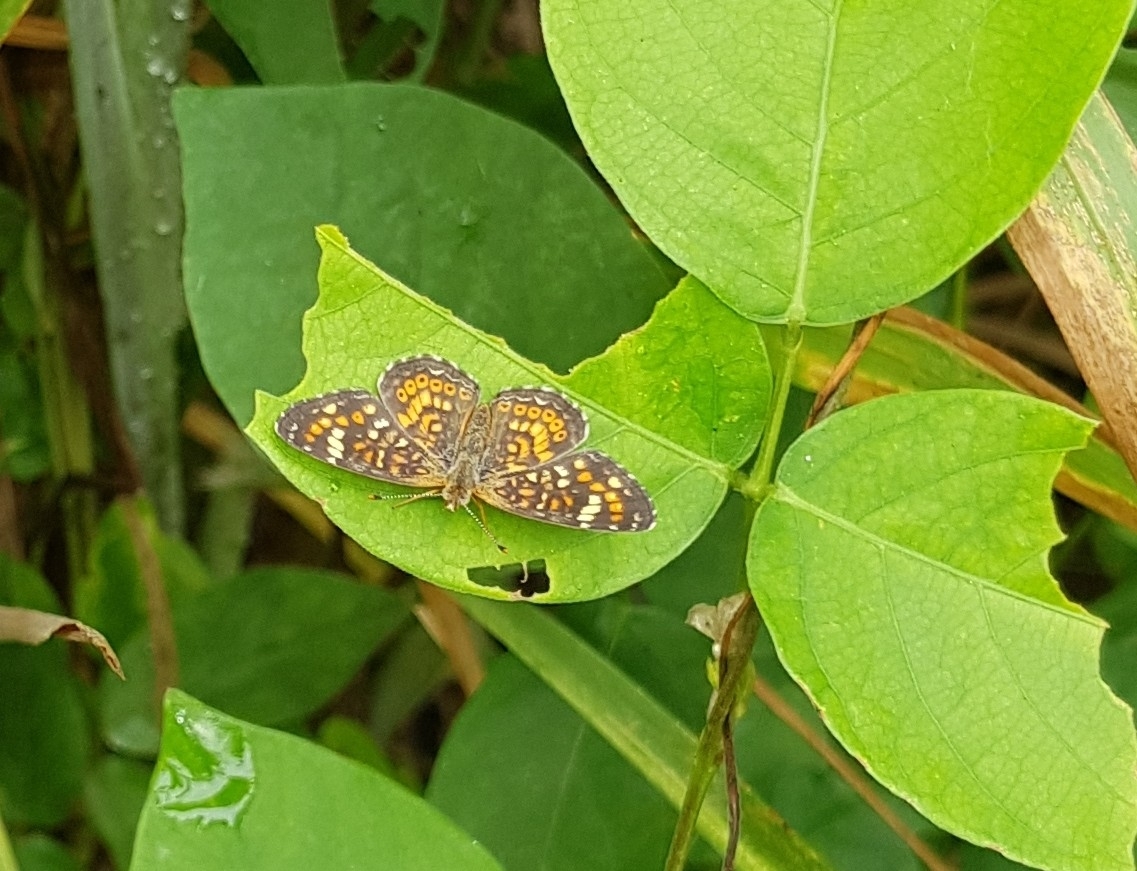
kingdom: Animalia
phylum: Arthropoda
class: Insecta
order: Lepidoptera
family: Nymphalidae
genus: Phyciodes
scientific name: Phyciodes picta
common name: Painted crescent
